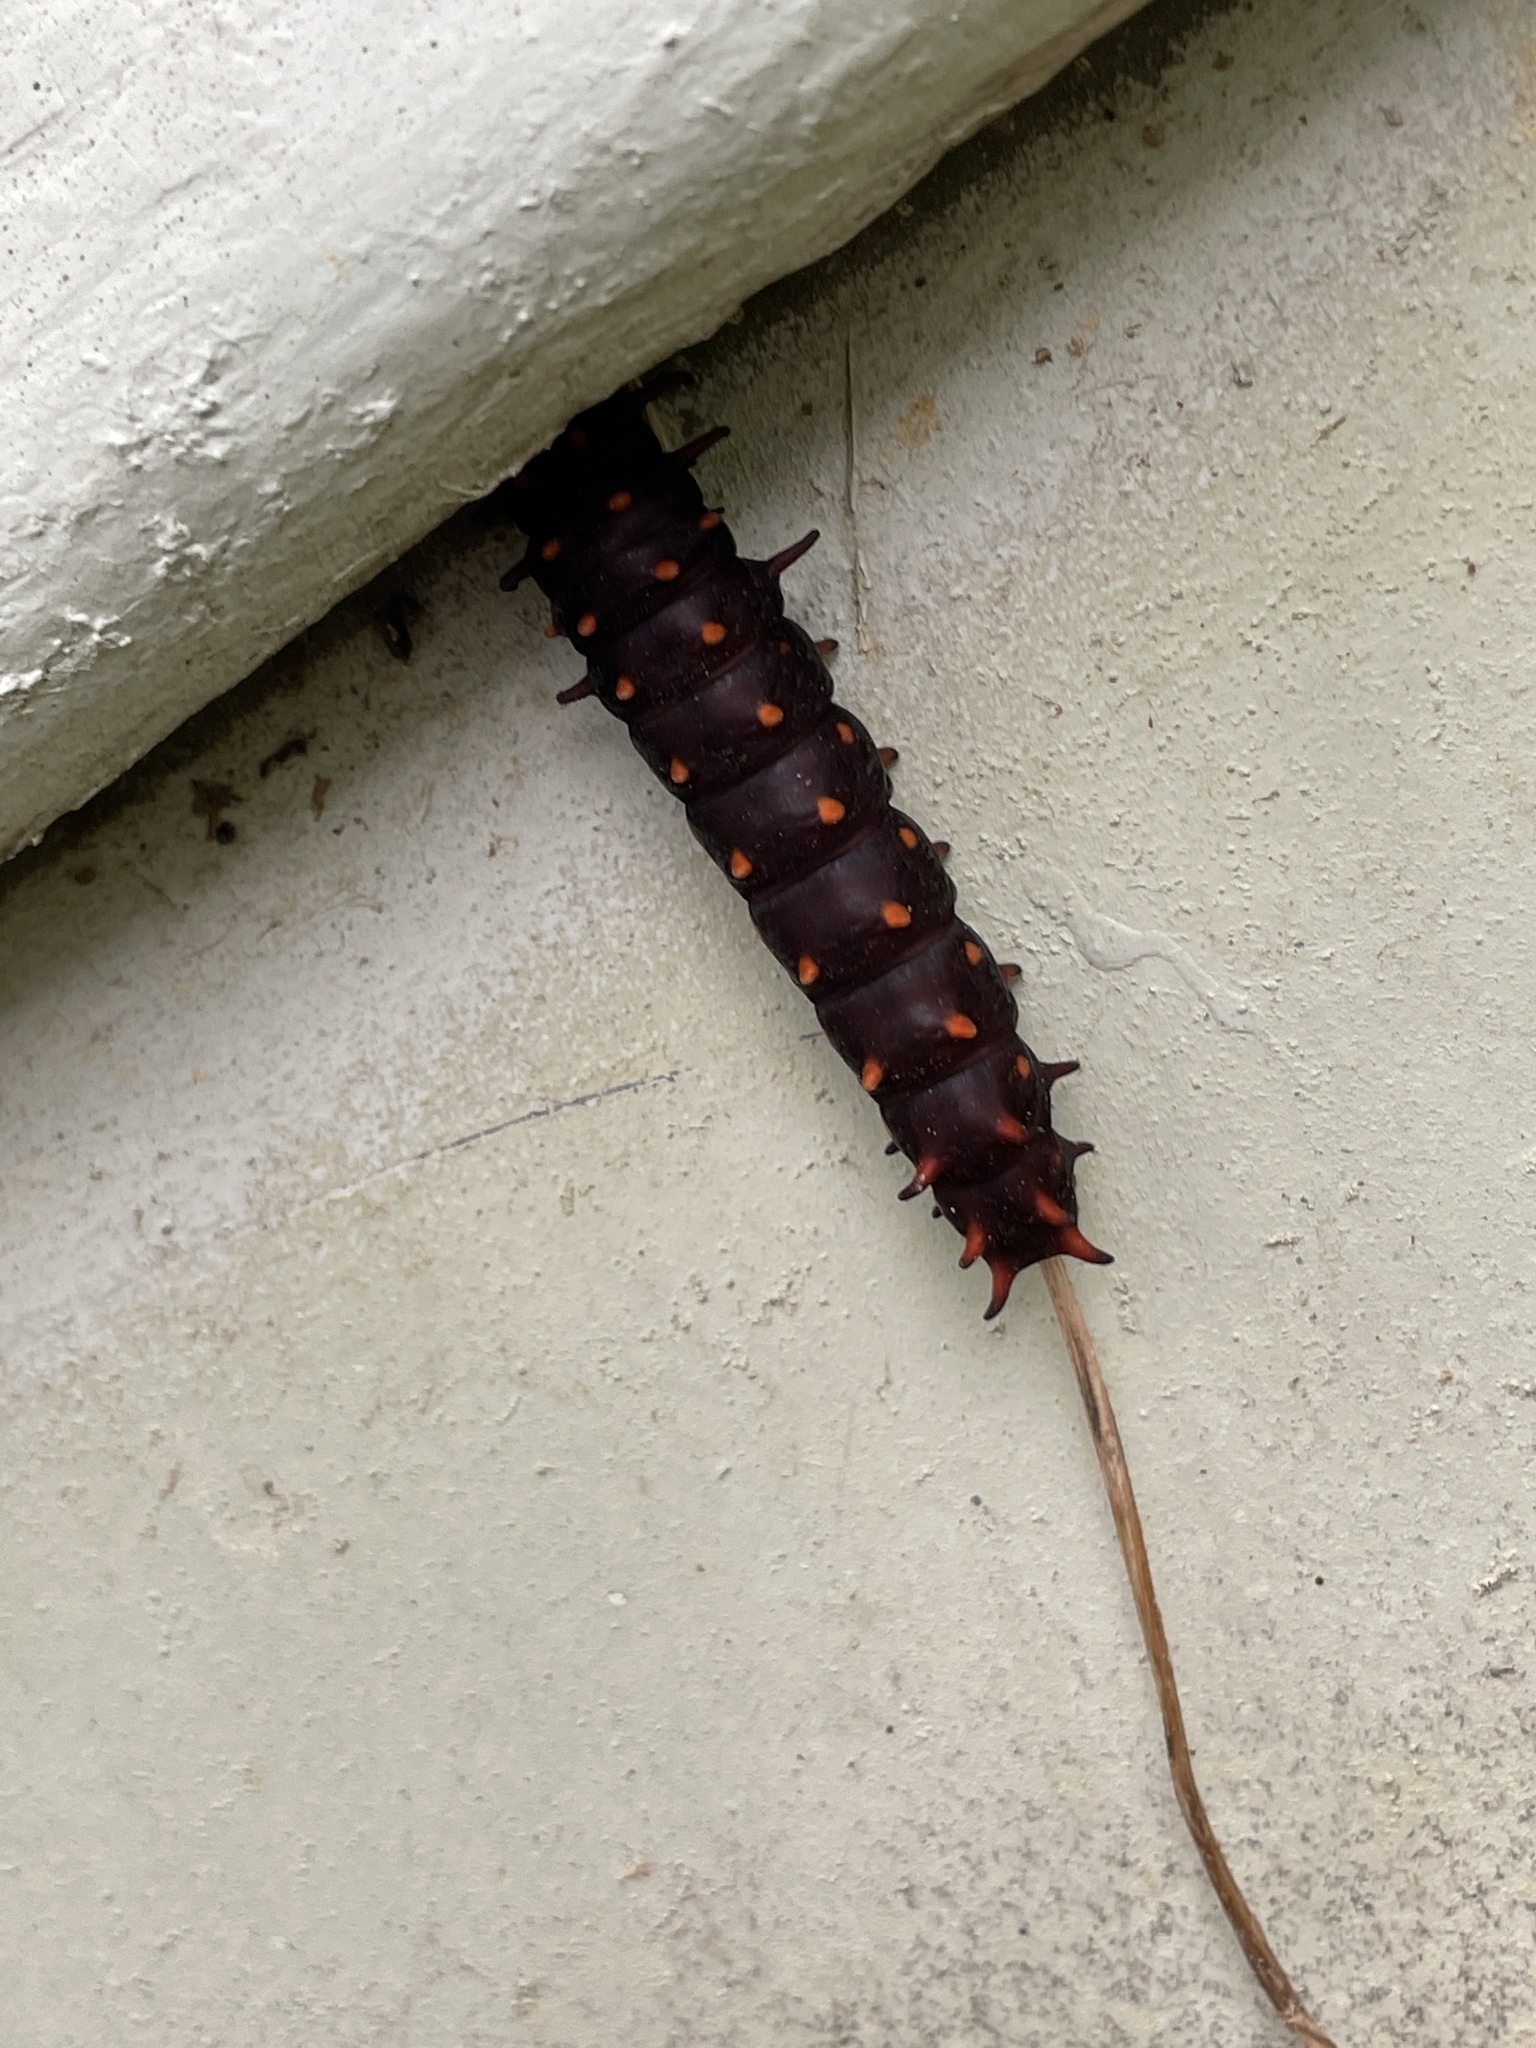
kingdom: Animalia
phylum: Arthropoda
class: Insecta
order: Lepidoptera
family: Papilionidae
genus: Battus
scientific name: Battus philenor
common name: Pipevine swallowtail
